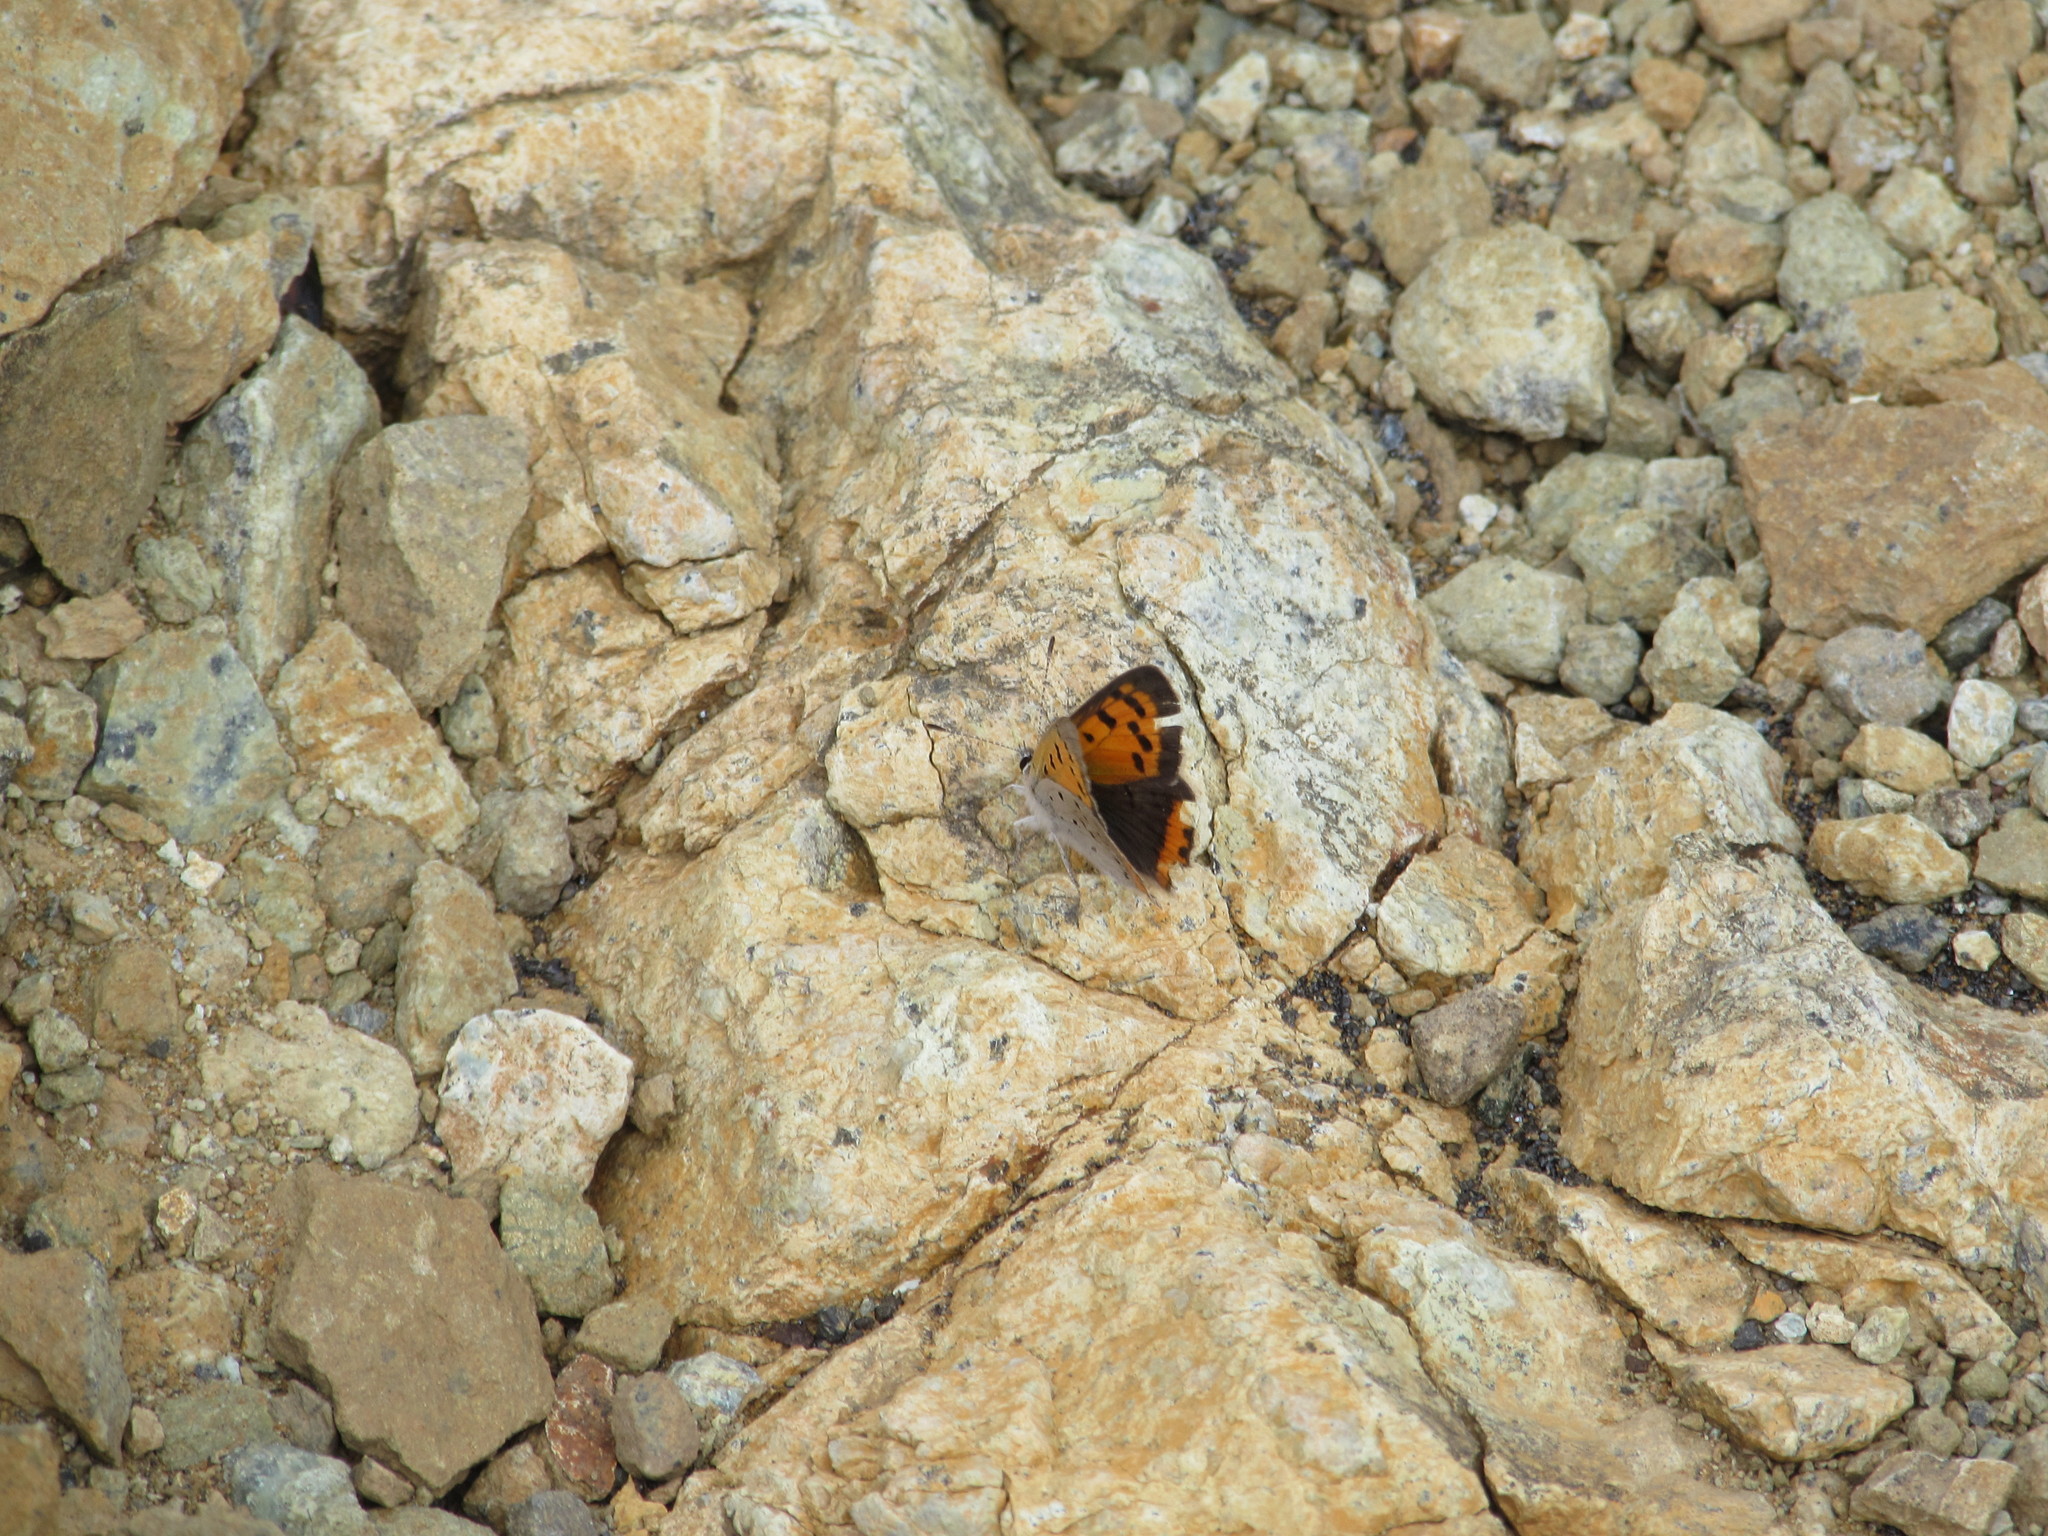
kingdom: Animalia
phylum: Arthropoda
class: Insecta
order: Lepidoptera
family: Lycaenidae
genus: Lycaena
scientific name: Lycaena hypophlaeas
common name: American copper
